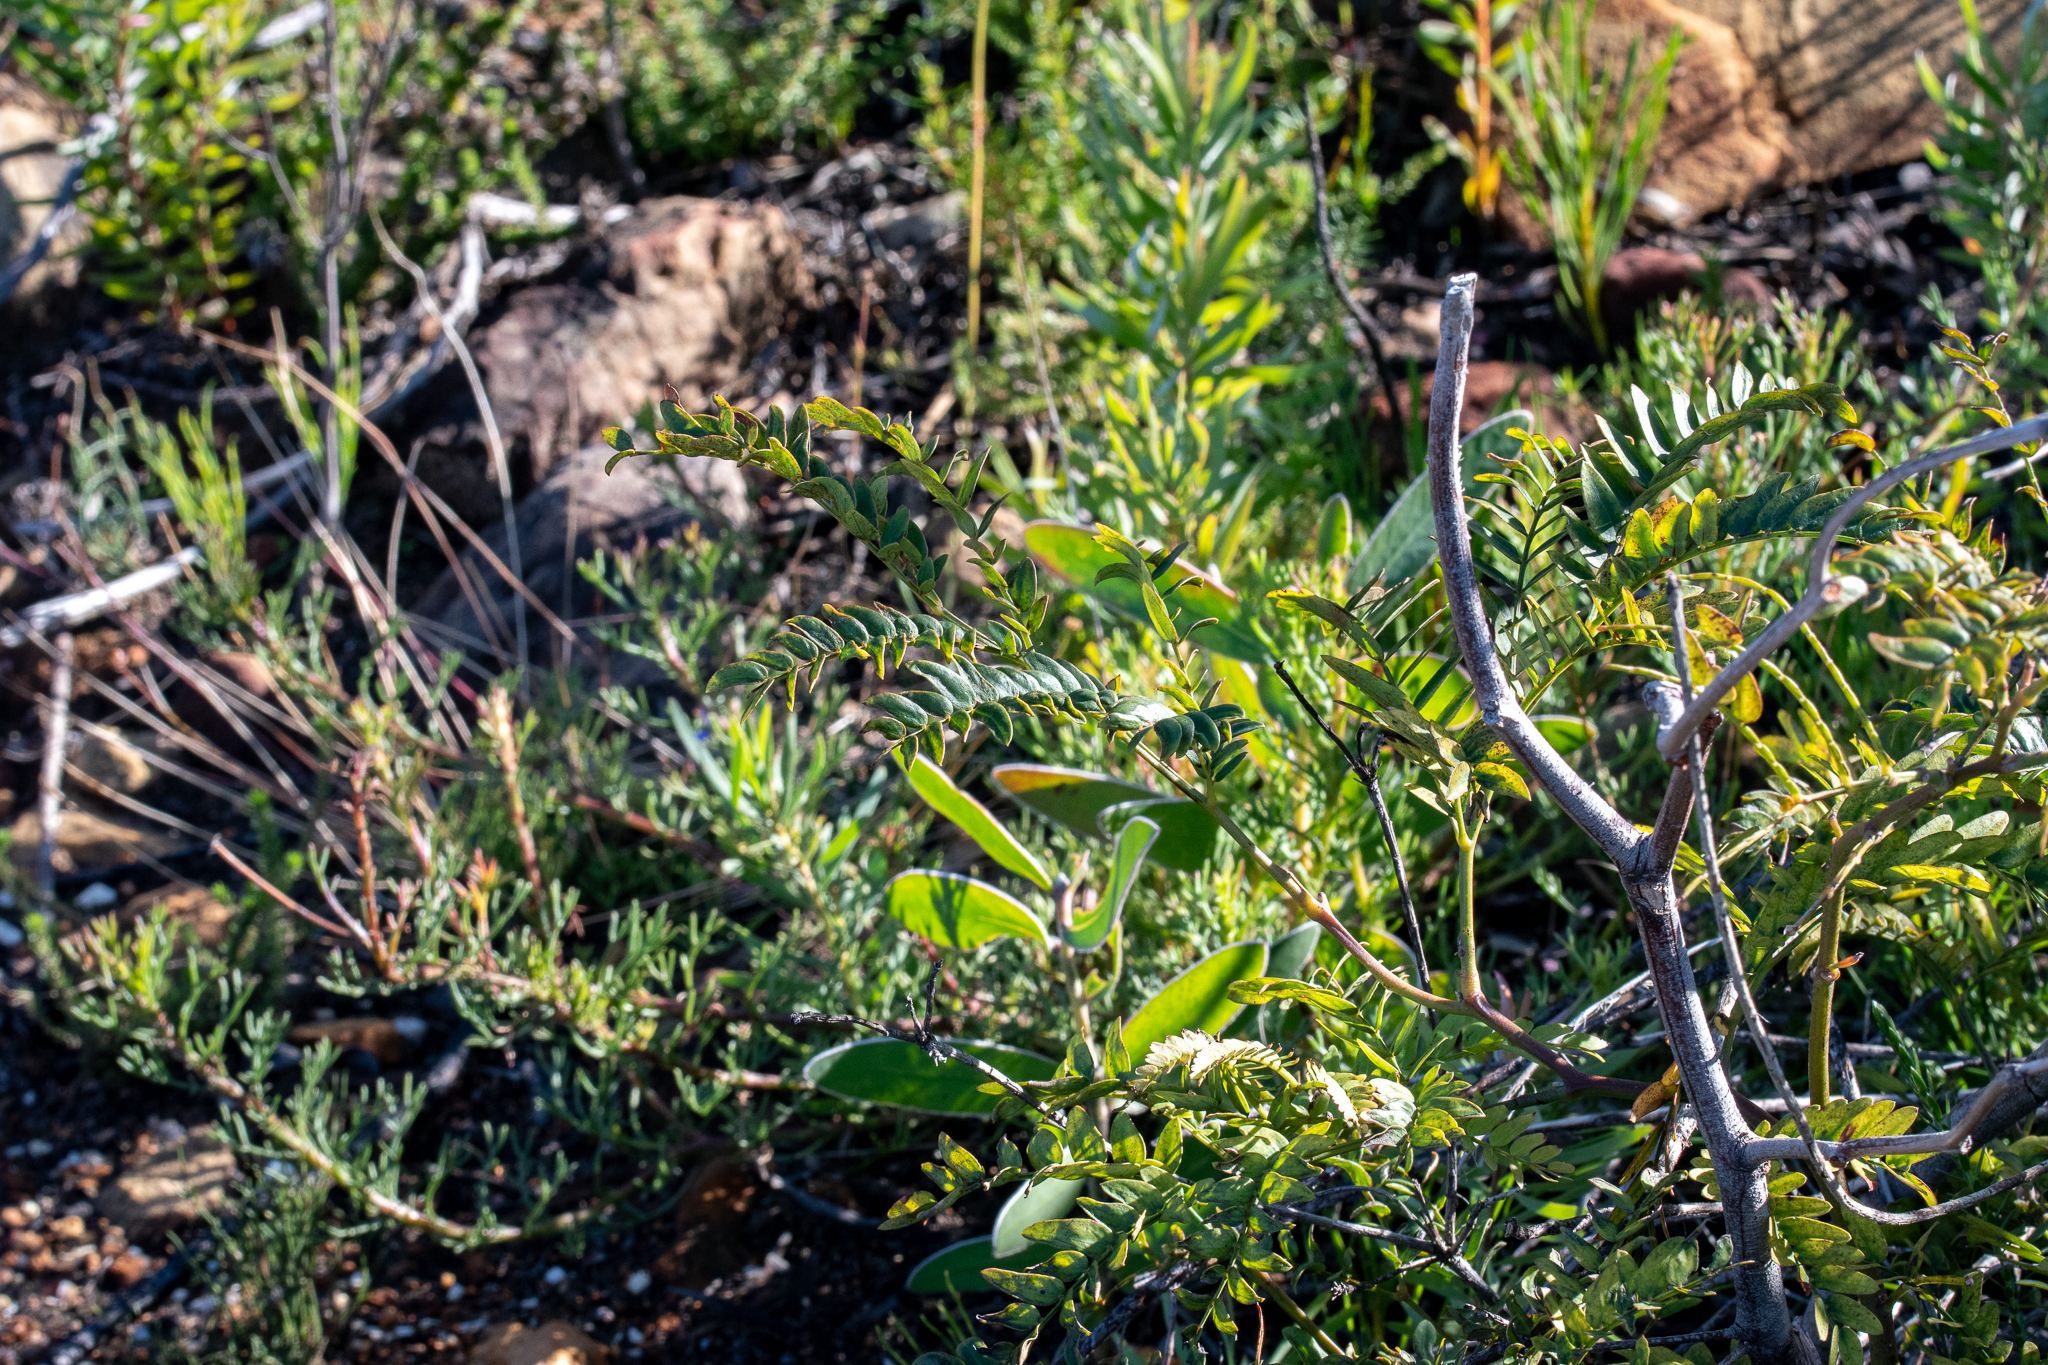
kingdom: Plantae
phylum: Tracheophyta
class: Magnoliopsida
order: Fabales
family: Fabaceae
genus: Acacia
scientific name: Acacia elata
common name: Cedar wattle
